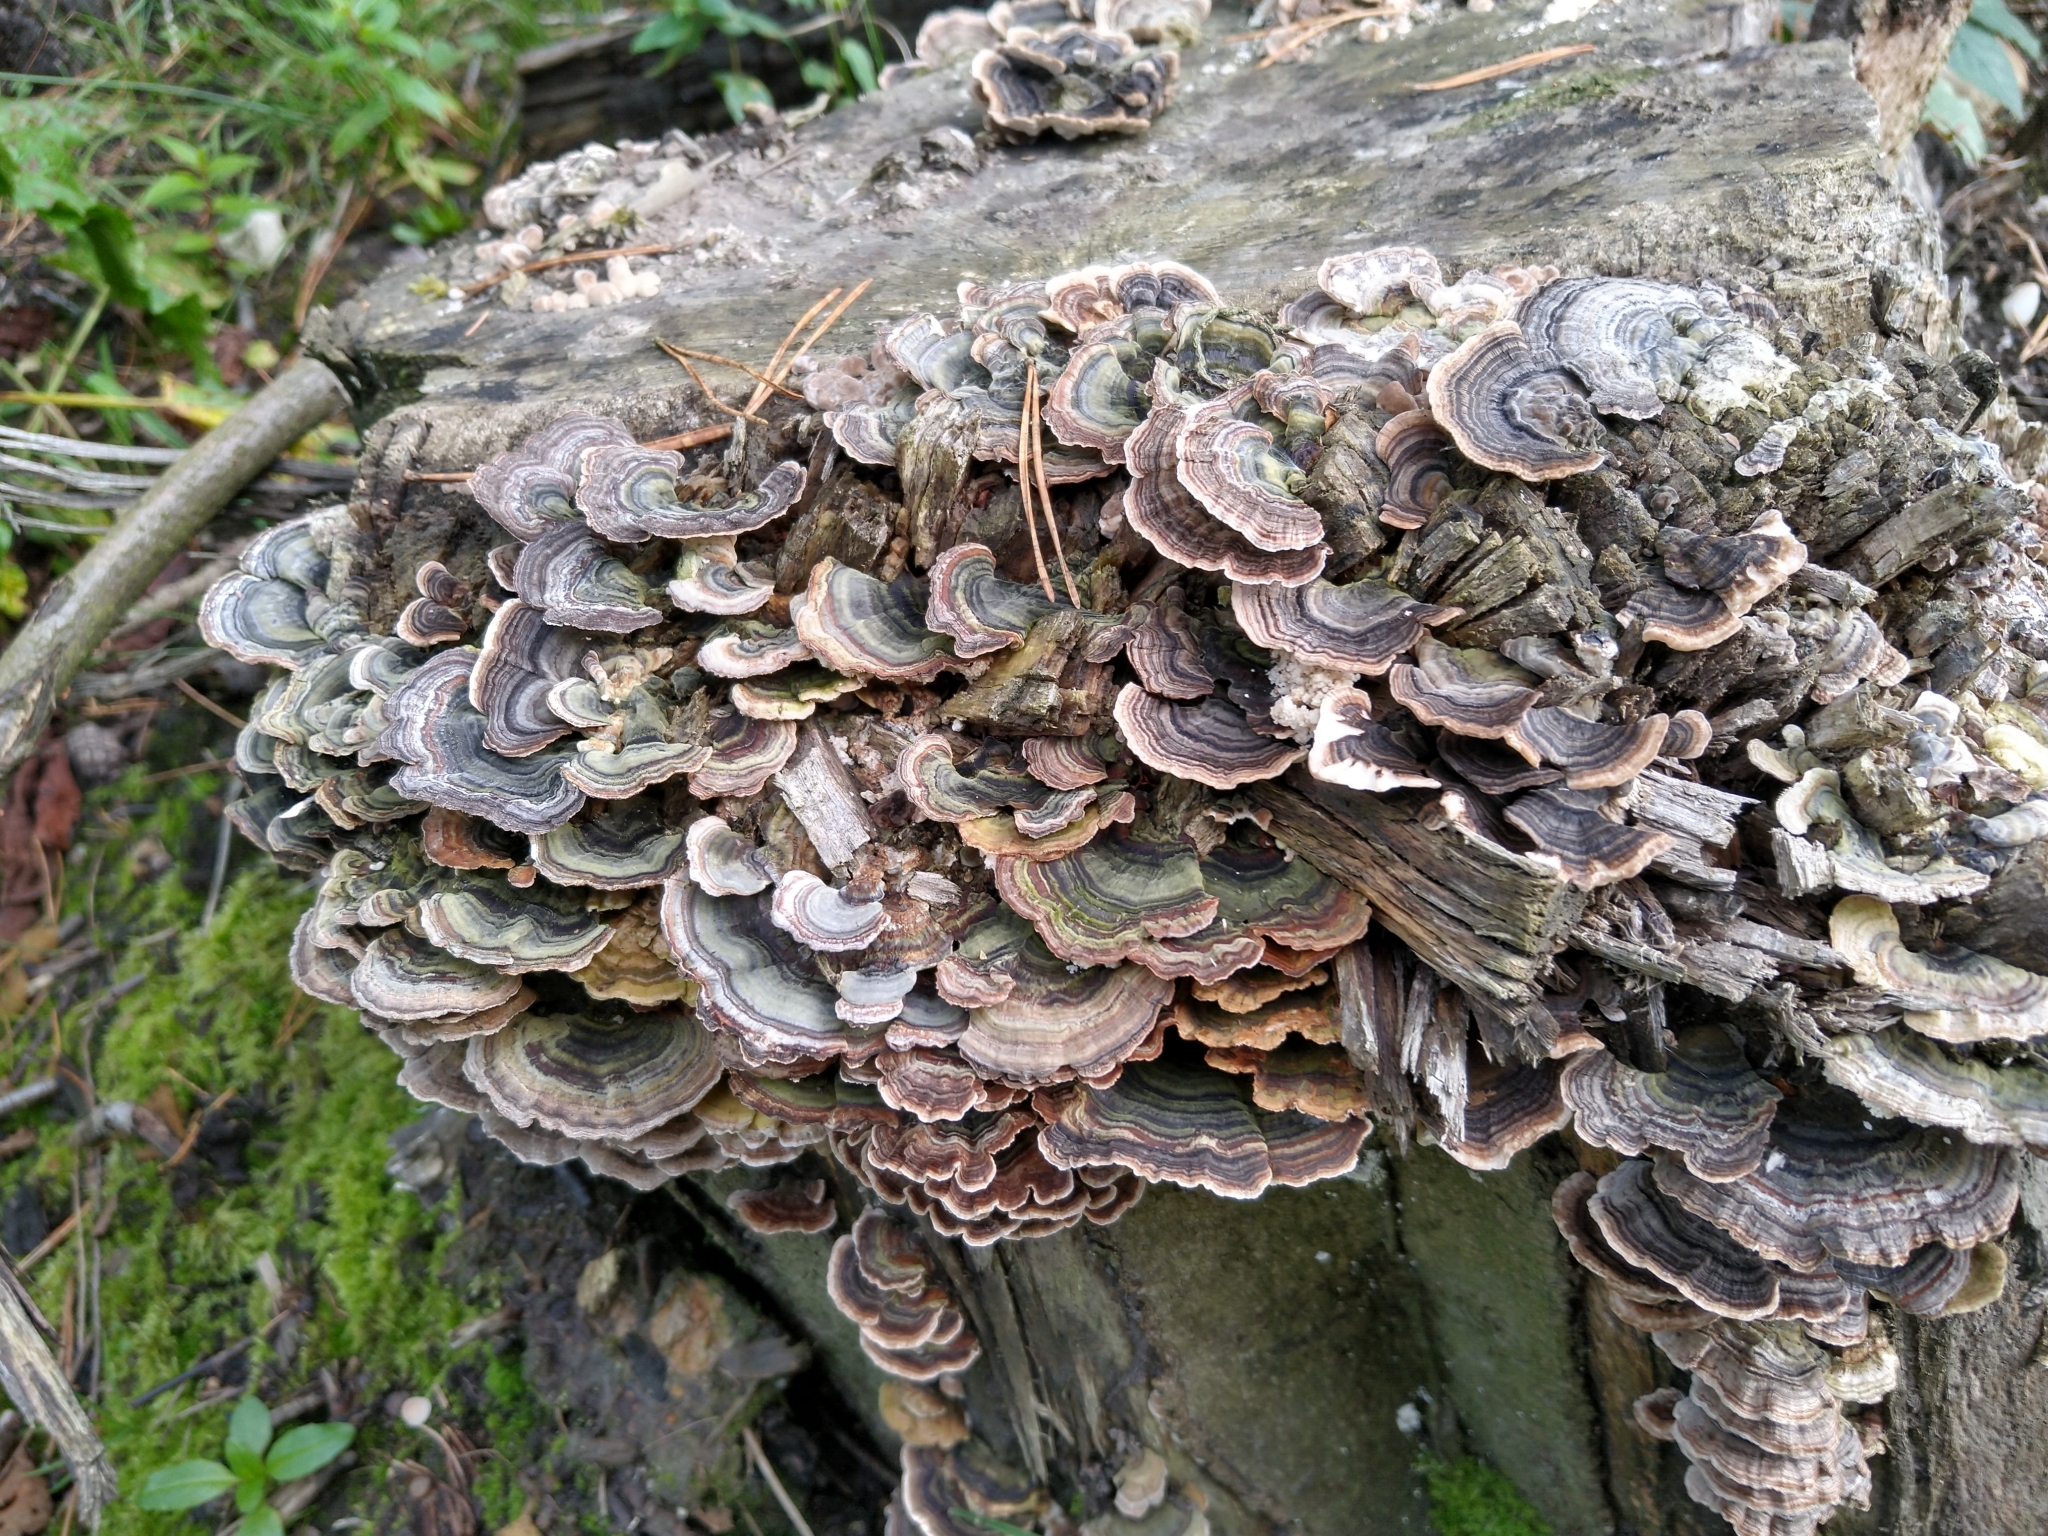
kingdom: Fungi
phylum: Basidiomycota
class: Agaricomycetes
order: Polyporales
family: Polyporaceae
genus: Trametes
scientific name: Trametes versicolor
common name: Turkeytail
